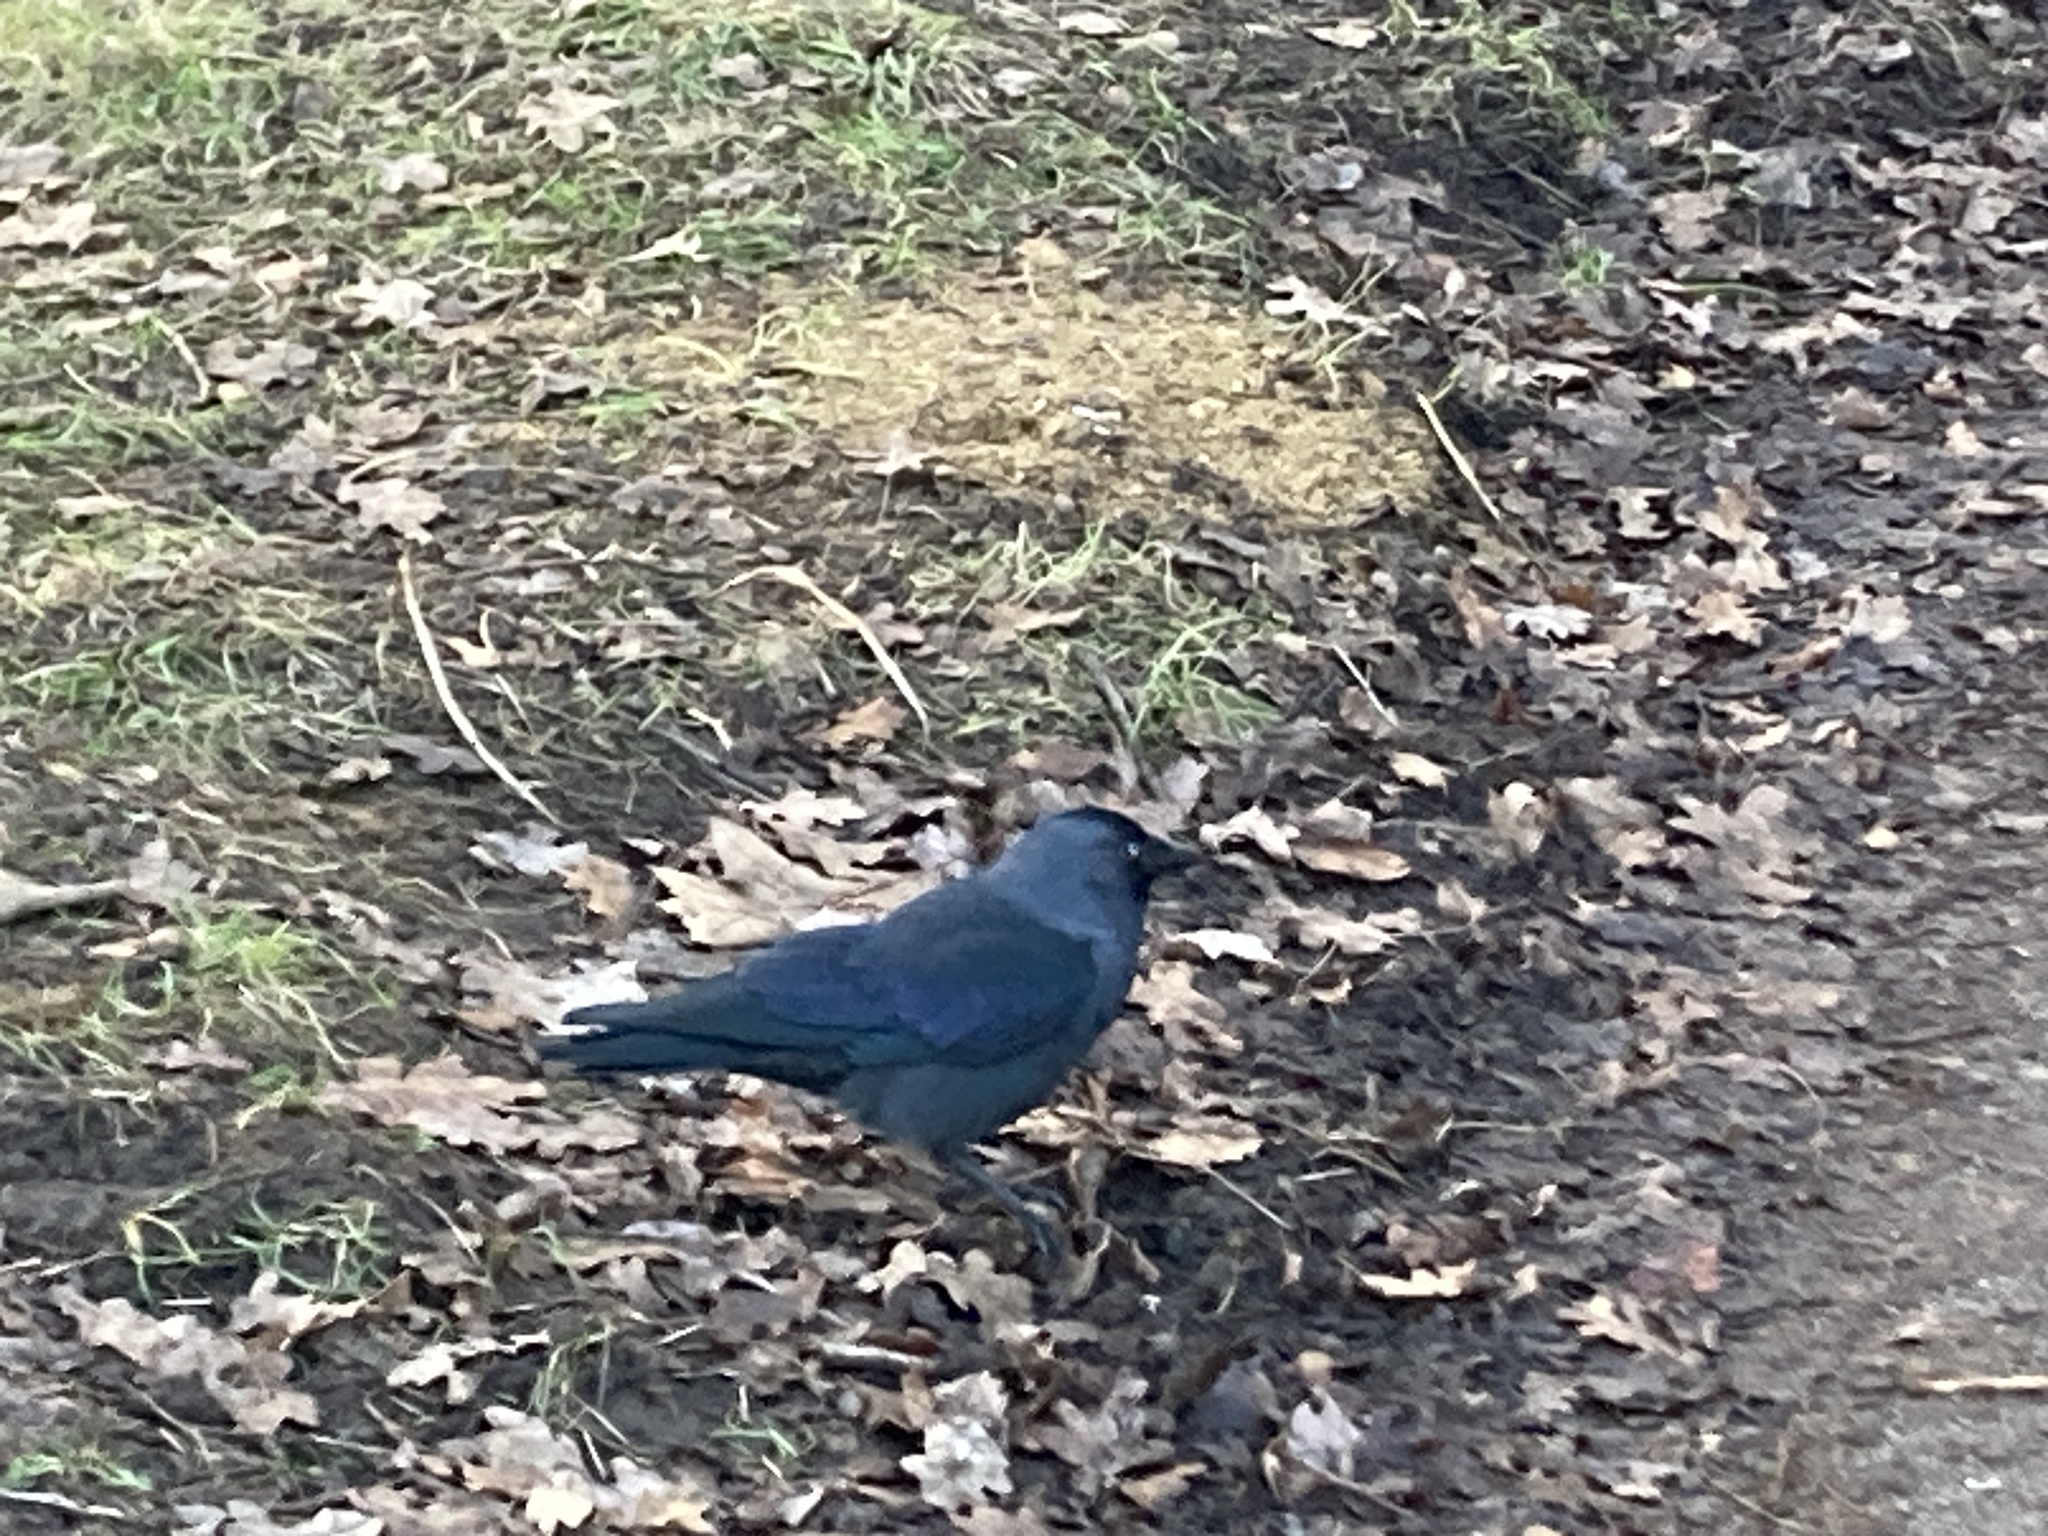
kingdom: Animalia
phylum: Chordata
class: Aves
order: Passeriformes
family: Corvidae
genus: Coloeus
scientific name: Coloeus monedula
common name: Western jackdaw
